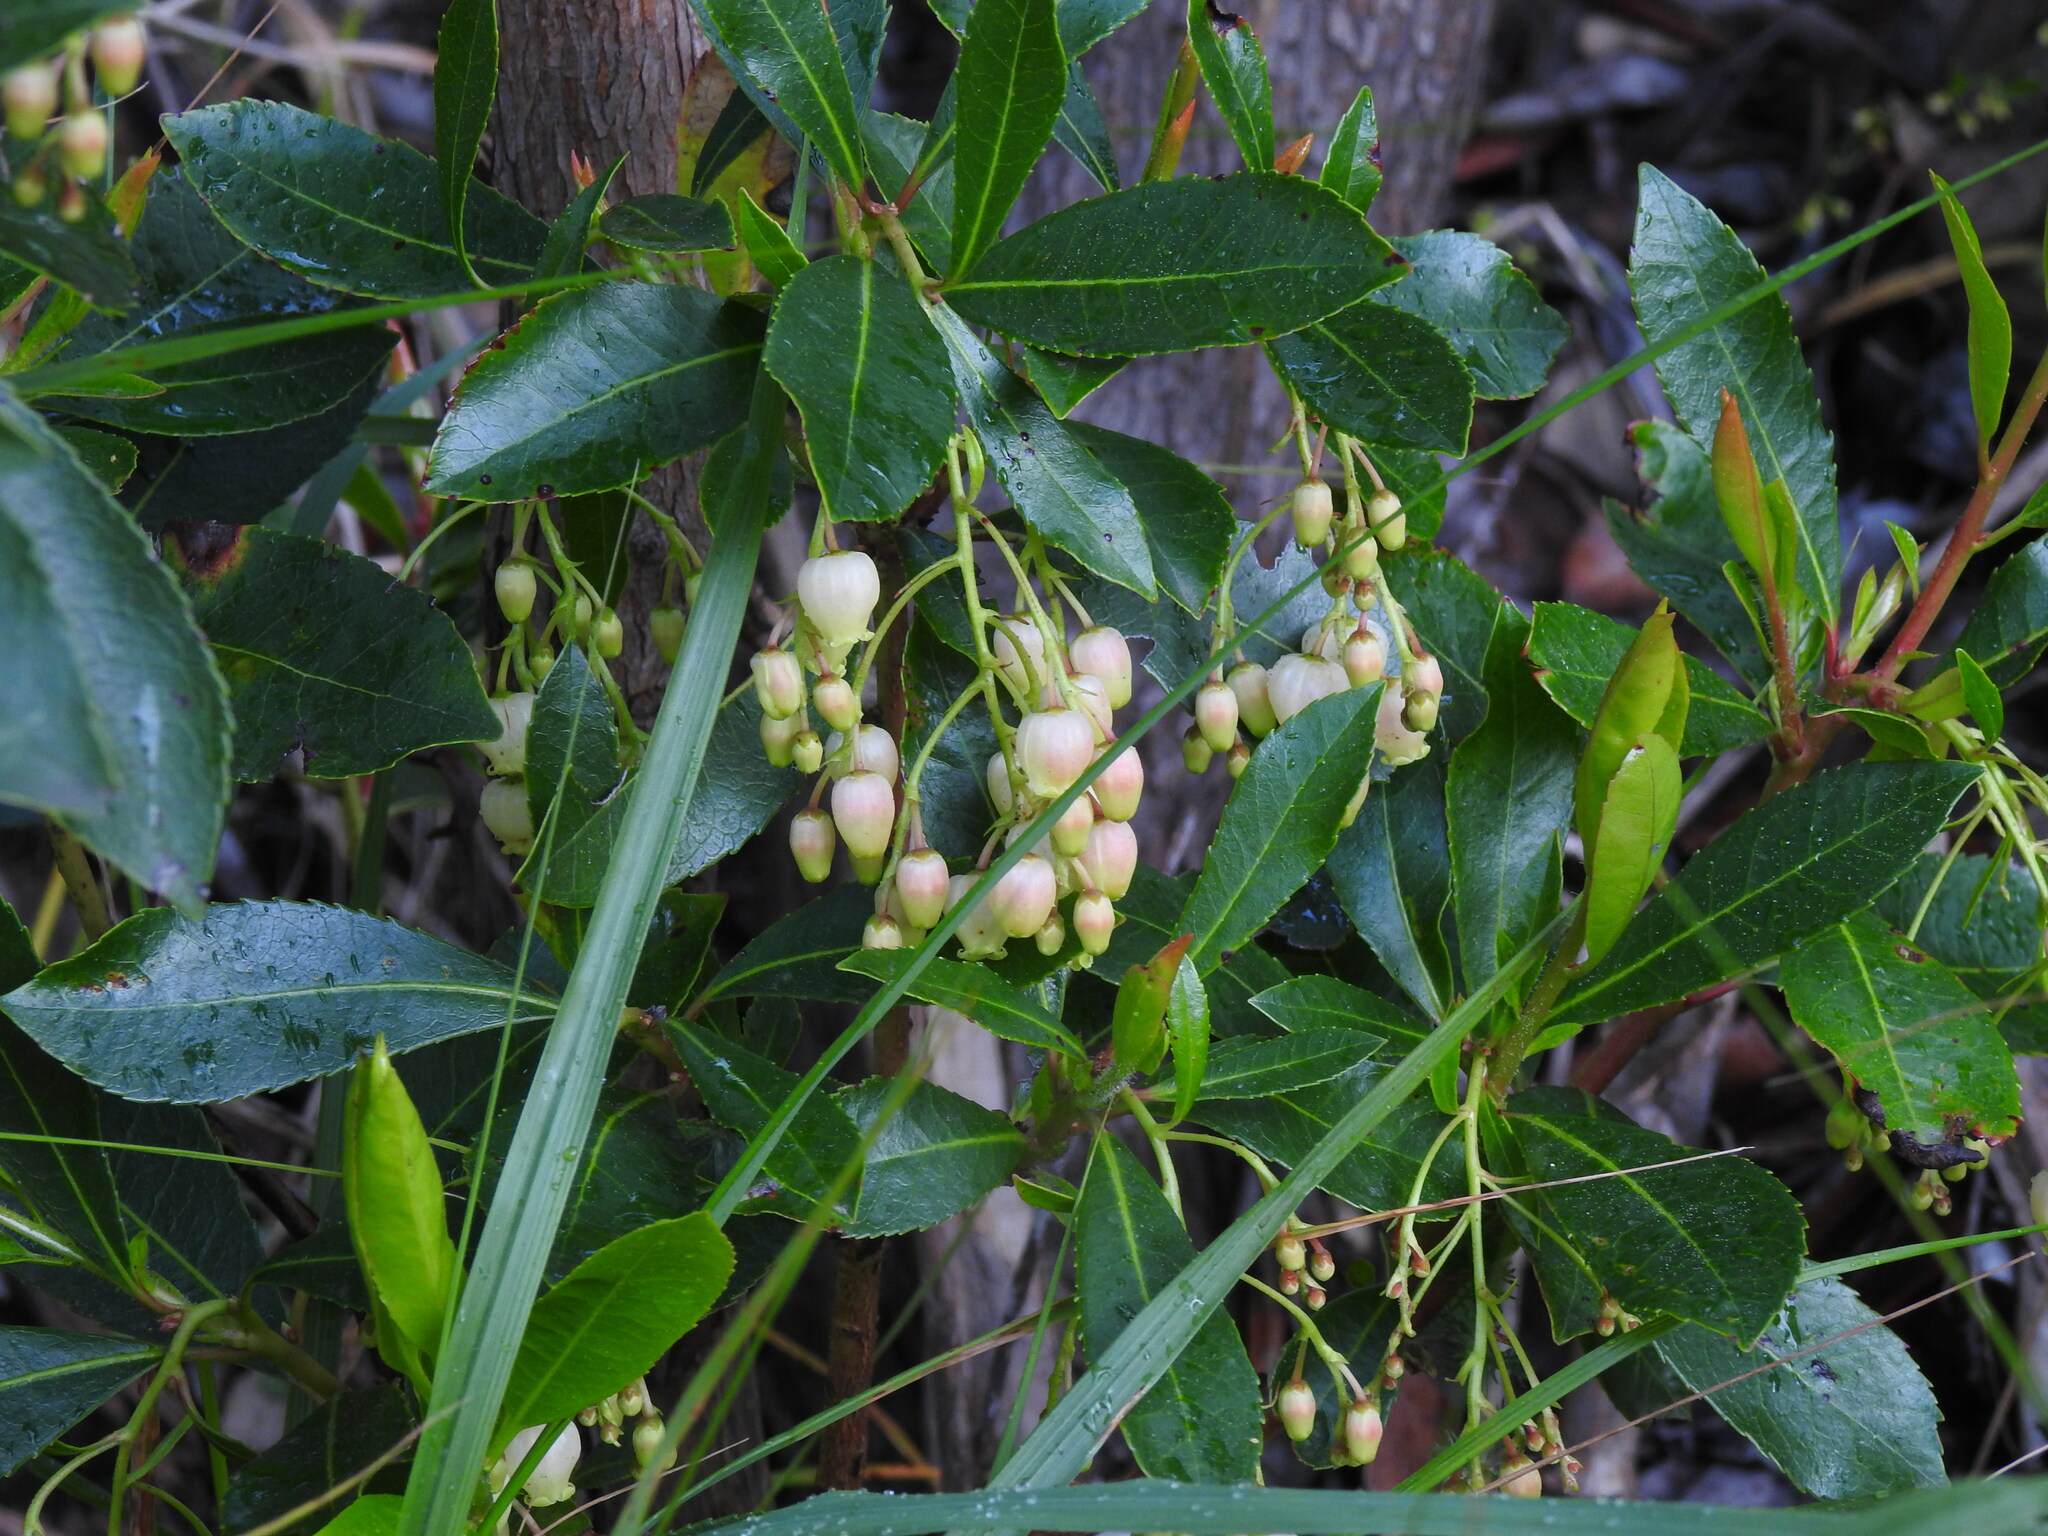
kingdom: Plantae
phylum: Tracheophyta
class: Magnoliopsida
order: Ericales
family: Ericaceae
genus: Arbutus
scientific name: Arbutus unedo
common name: Strawberry-tree
